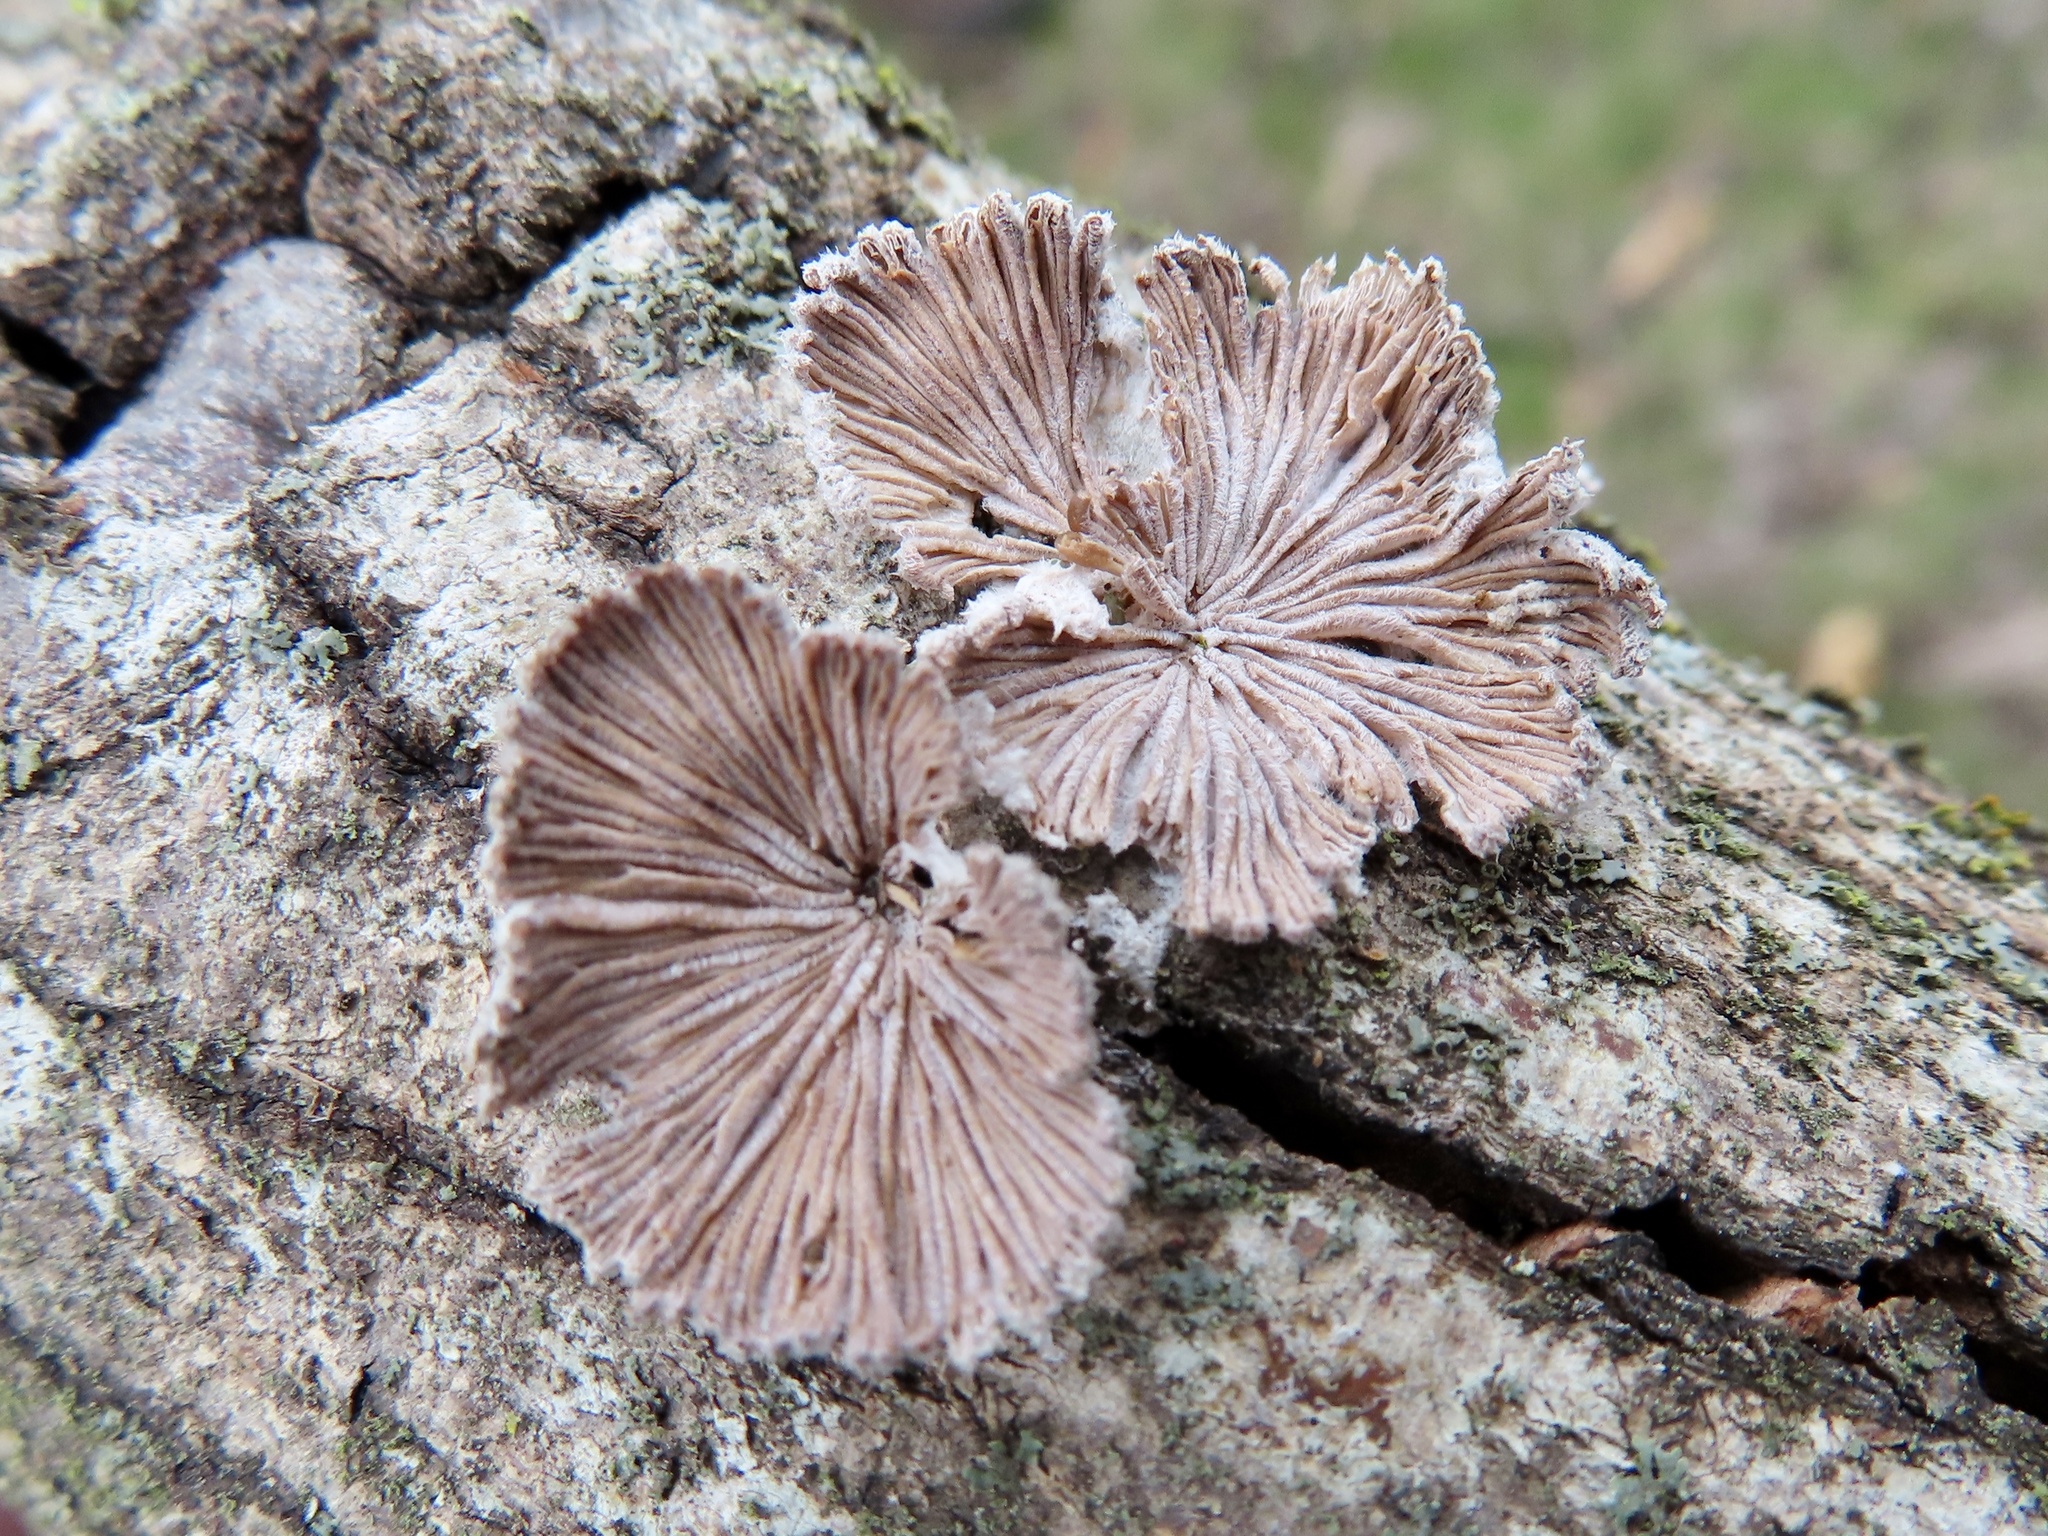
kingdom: Fungi
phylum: Basidiomycota
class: Agaricomycetes
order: Agaricales
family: Schizophyllaceae
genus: Schizophyllum
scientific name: Schizophyllum commune
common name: Common porecrust
